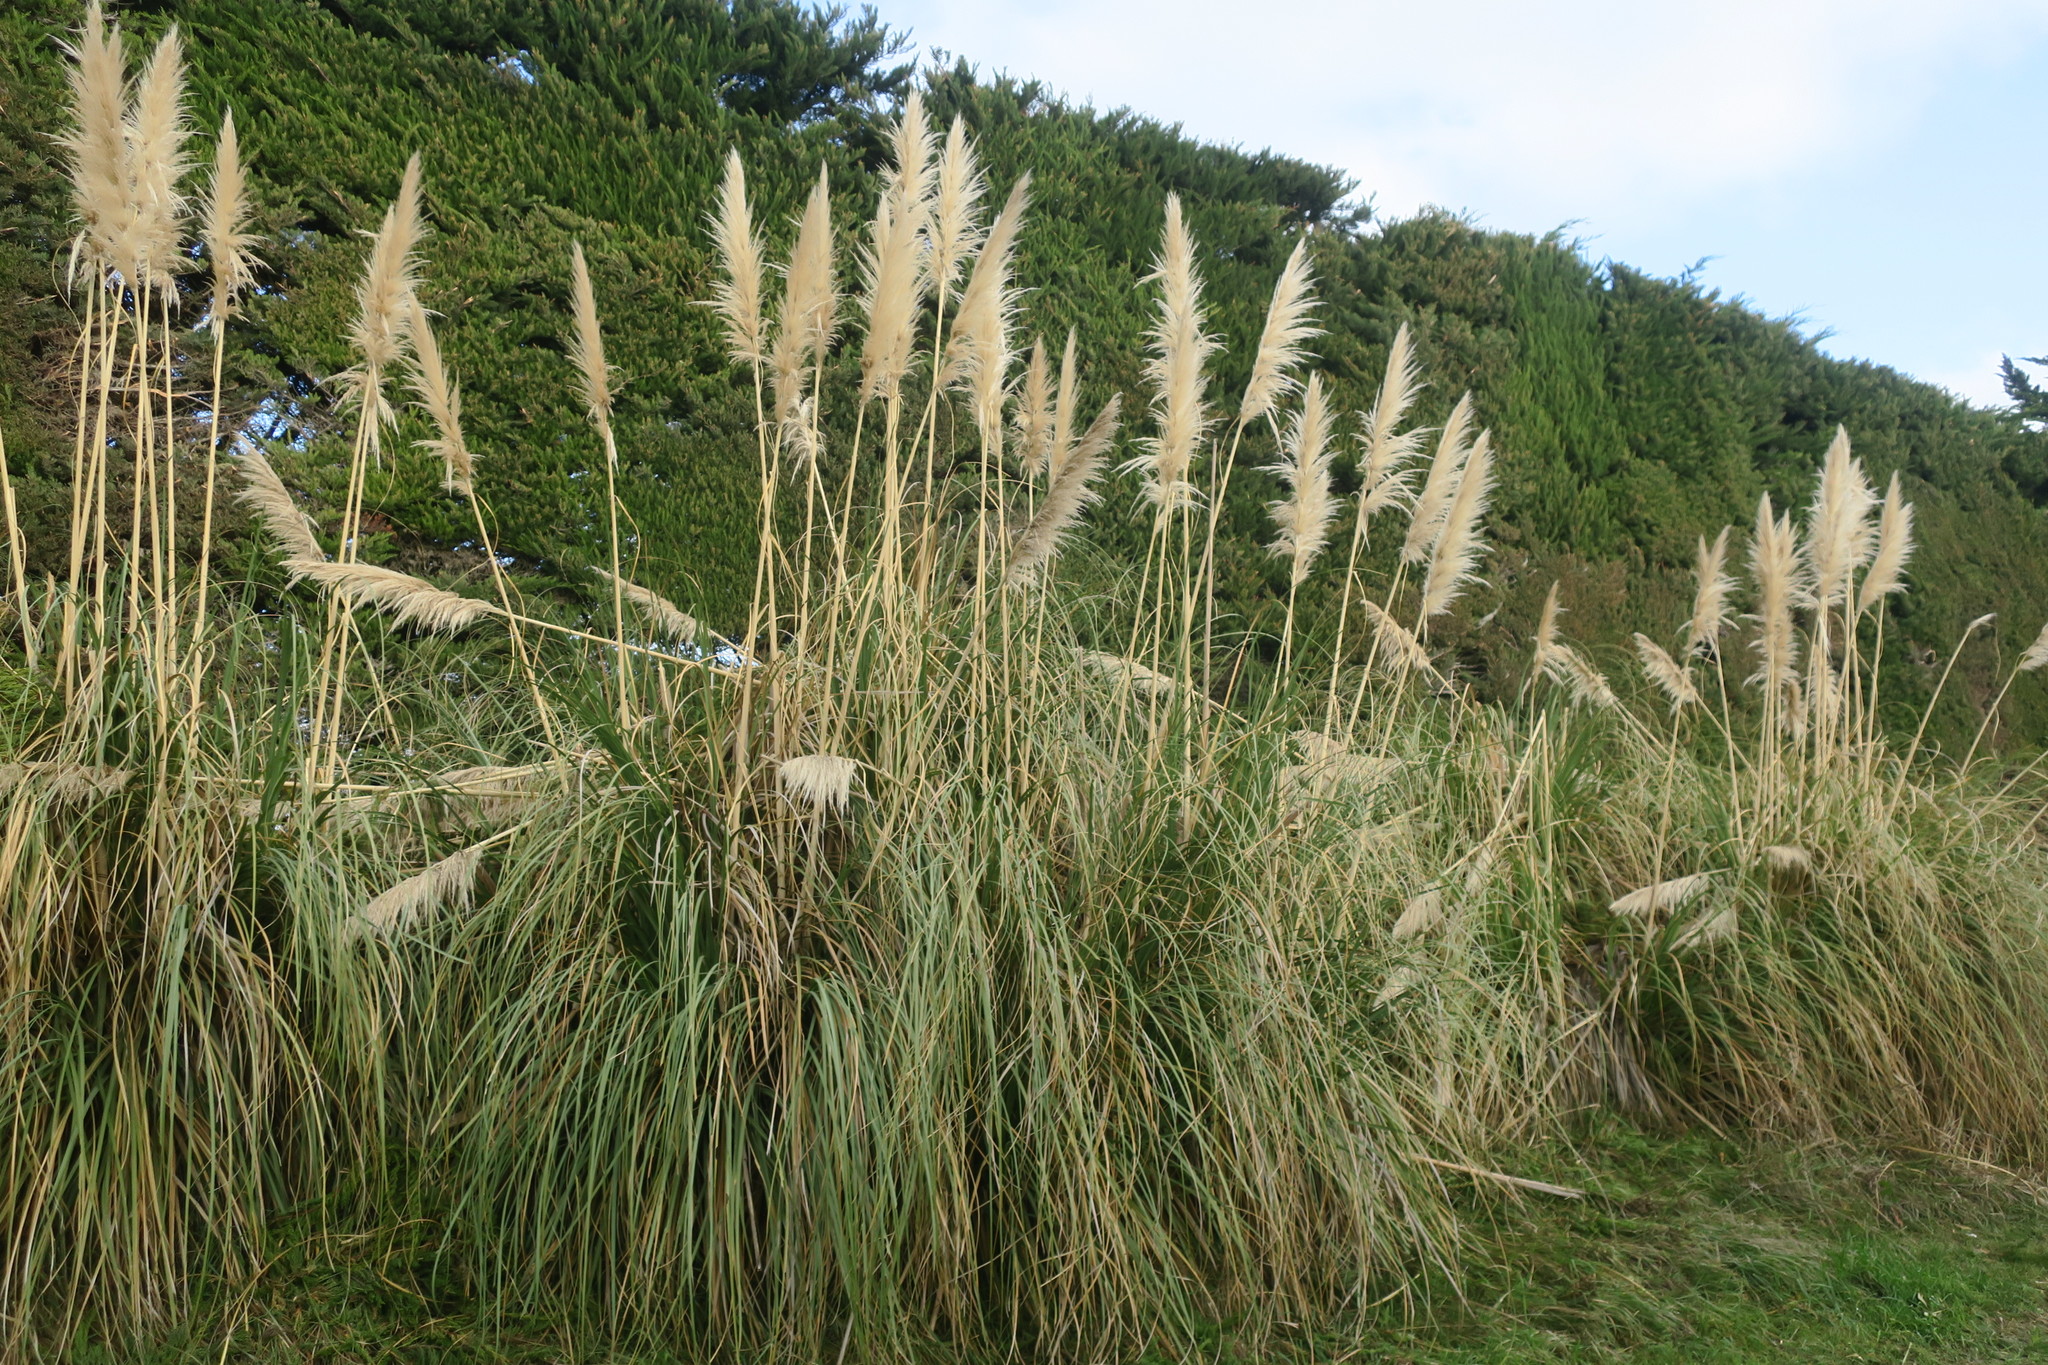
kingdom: Plantae
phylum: Tracheophyta
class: Liliopsida
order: Poales
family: Poaceae
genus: Cortaderia
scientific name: Cortaderia selloana
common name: Uruguayan pampas grass
